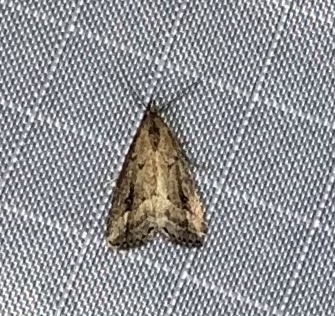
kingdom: Animalia
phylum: Arthropoda
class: Insecta
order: Lepidoptera
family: Erebidae
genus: Schrankia
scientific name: Schrankia
